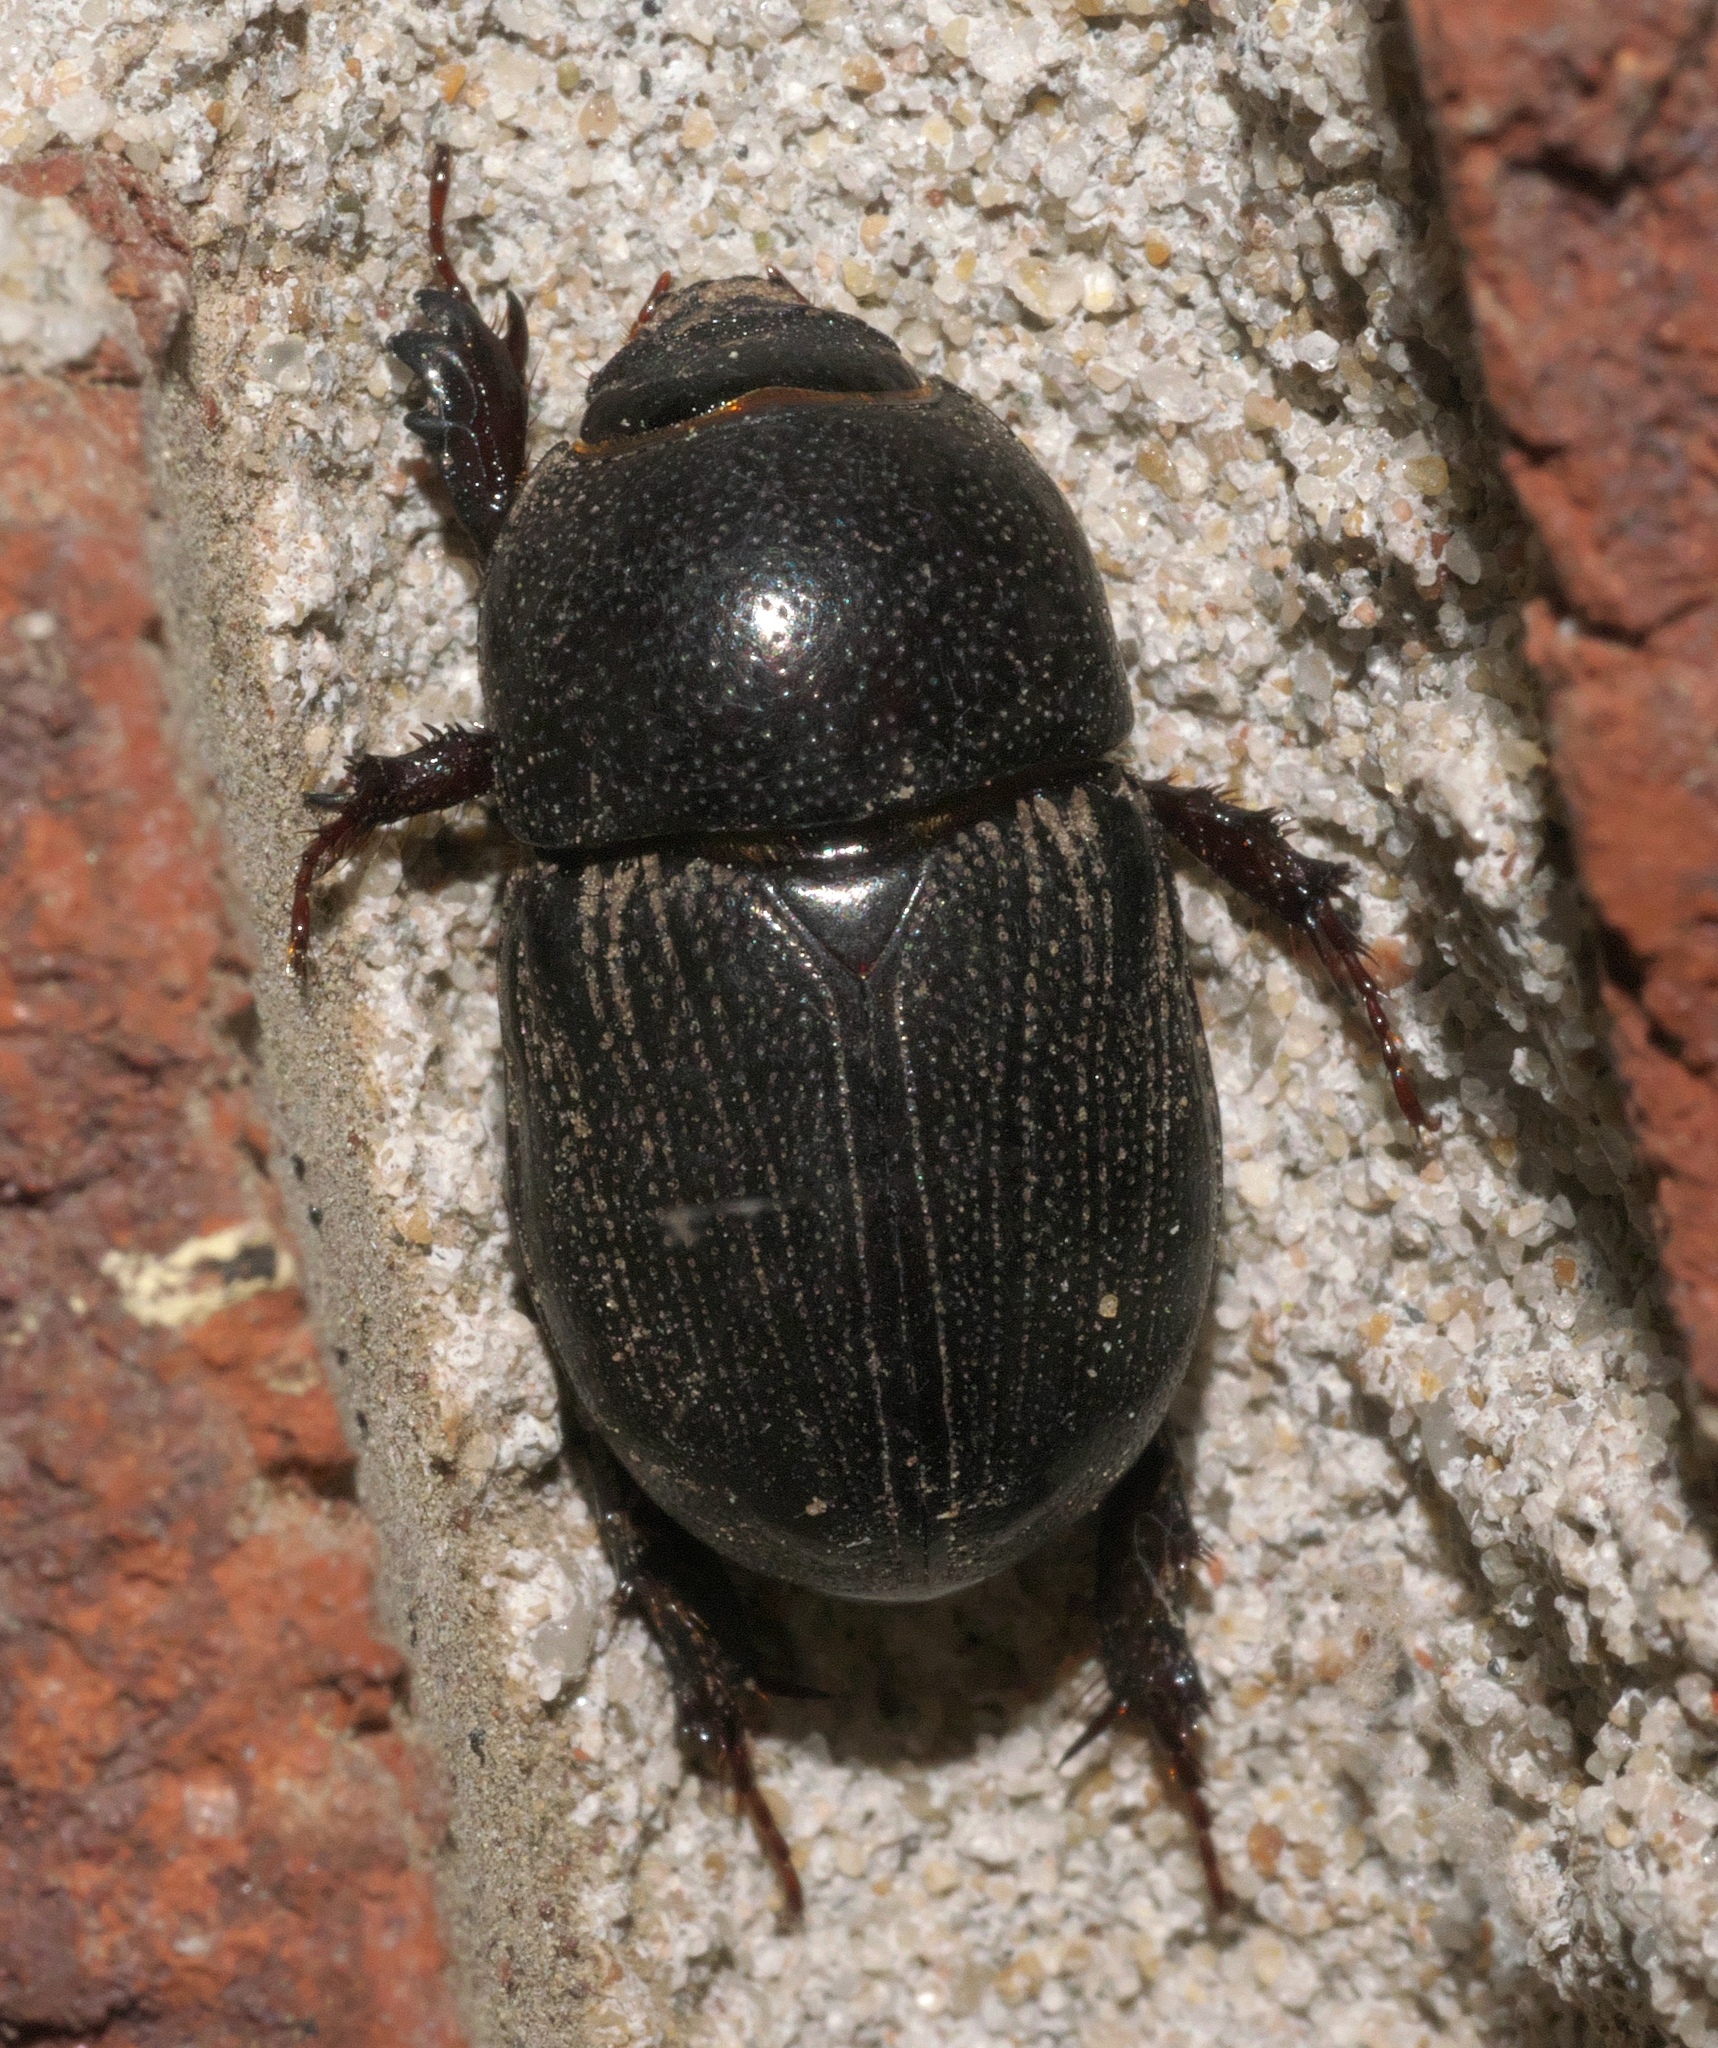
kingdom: Animalia
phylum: Arthropoda
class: Insecta
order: Coleoptera
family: Scarabaeidae
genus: Euetheola
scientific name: Euetheola humilis
